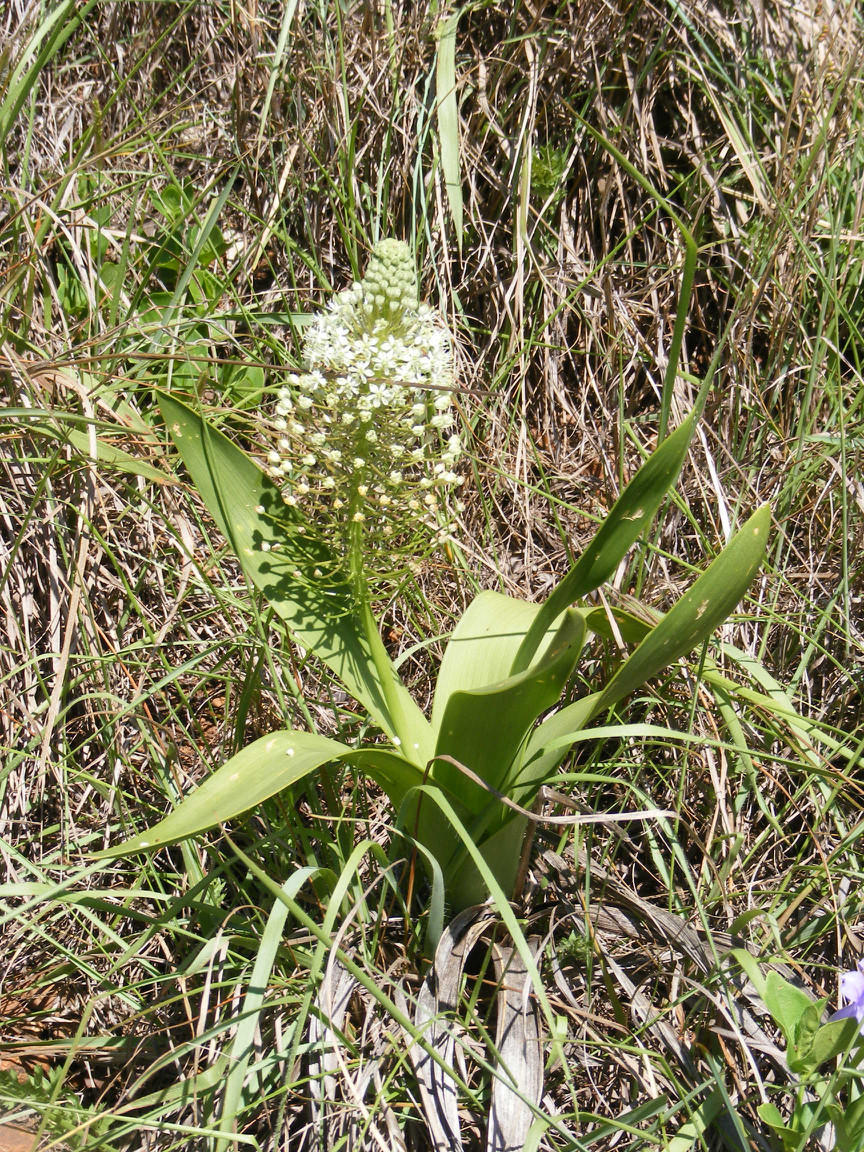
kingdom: Plantae
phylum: Tracheophyta
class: Liliopsida
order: Asparagales
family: Asparagaceae
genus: Schizocarphus
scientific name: Schizocarphus nervosus
